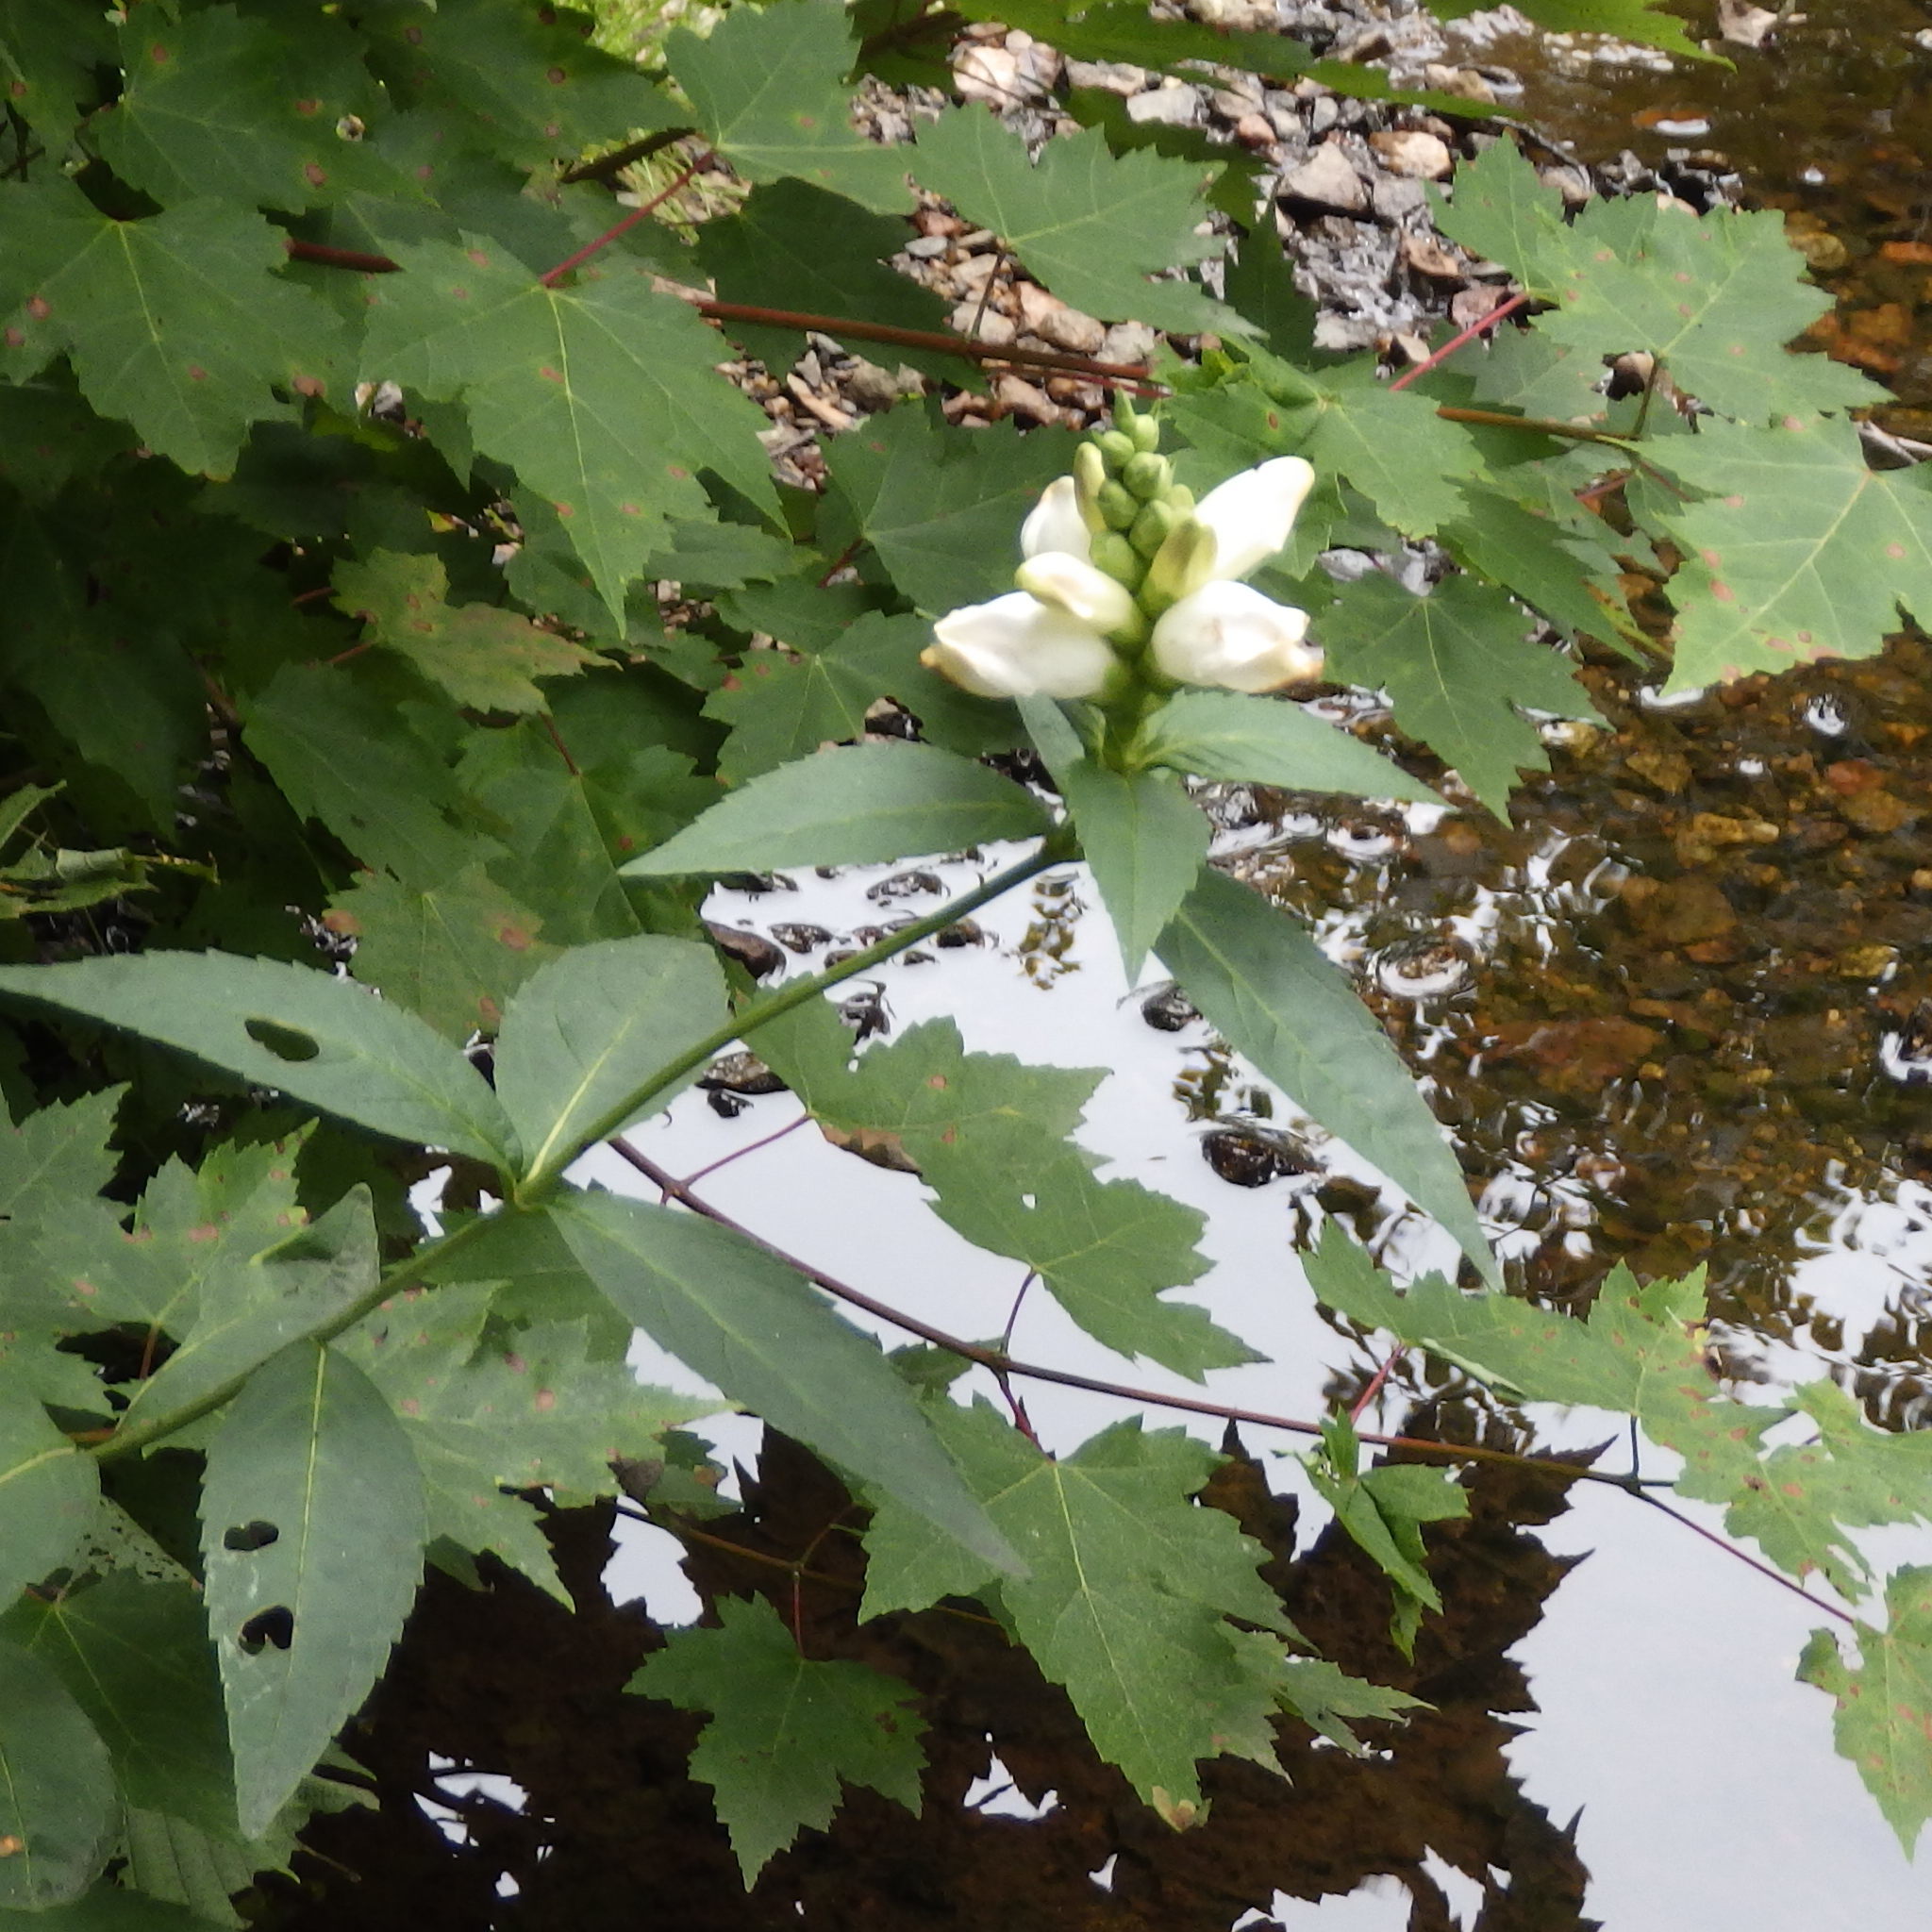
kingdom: Plantae
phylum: Tracheophyta
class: Magnoliopsida
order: Lamiales
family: Plantaginaceae
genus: Chelone
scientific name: Chelone glabra
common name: Snakehead
